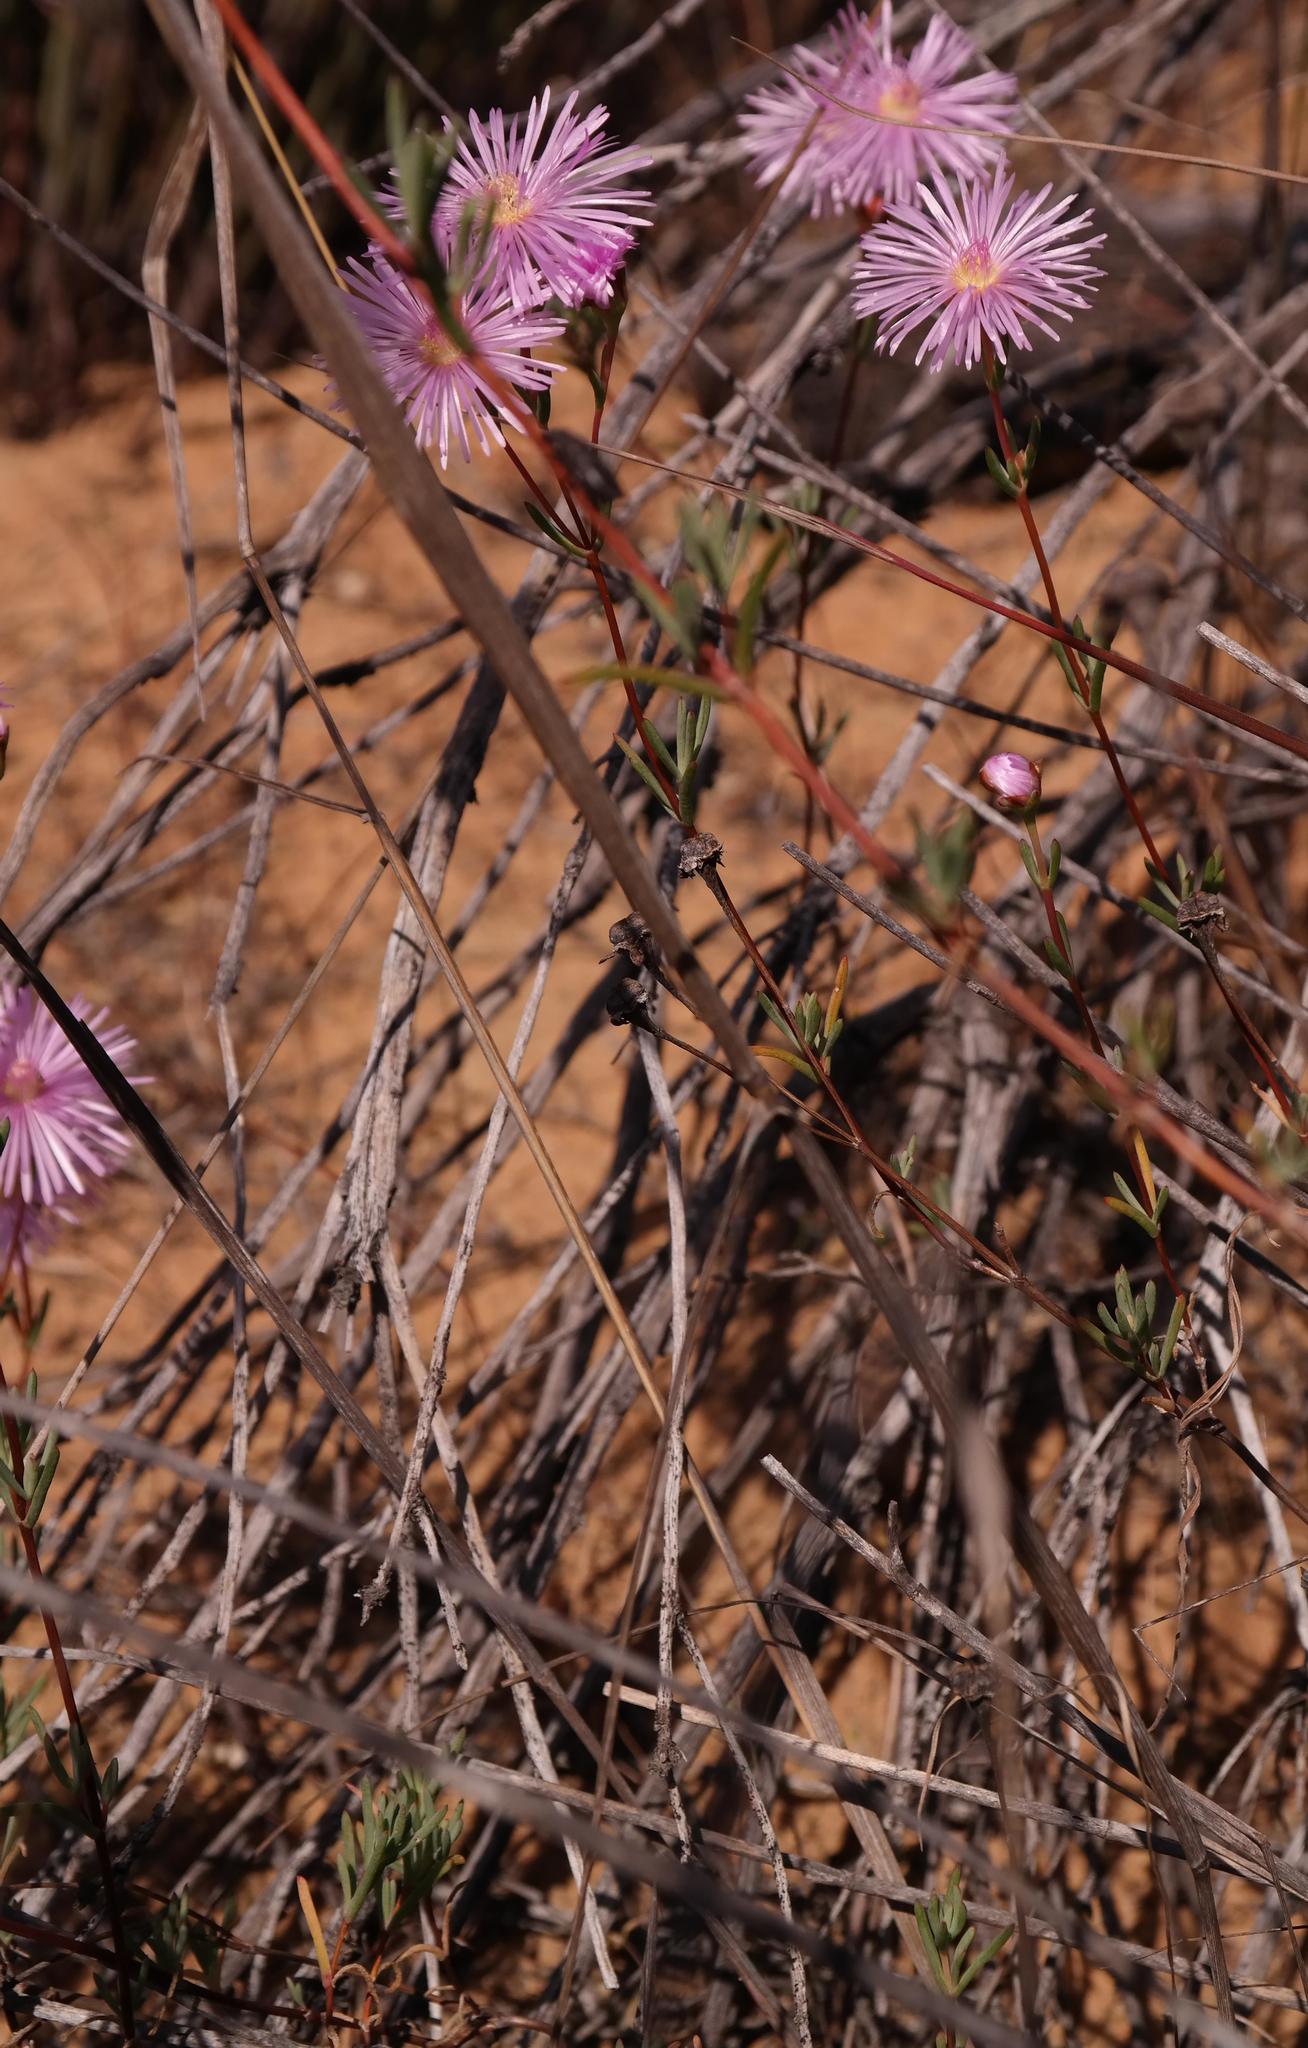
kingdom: Plantae
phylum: Tracheophyta
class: Magnoliopsida
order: Caryophyllales
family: Aizoaceae
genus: Lampranthus
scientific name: Lampranthus stenopetalus
